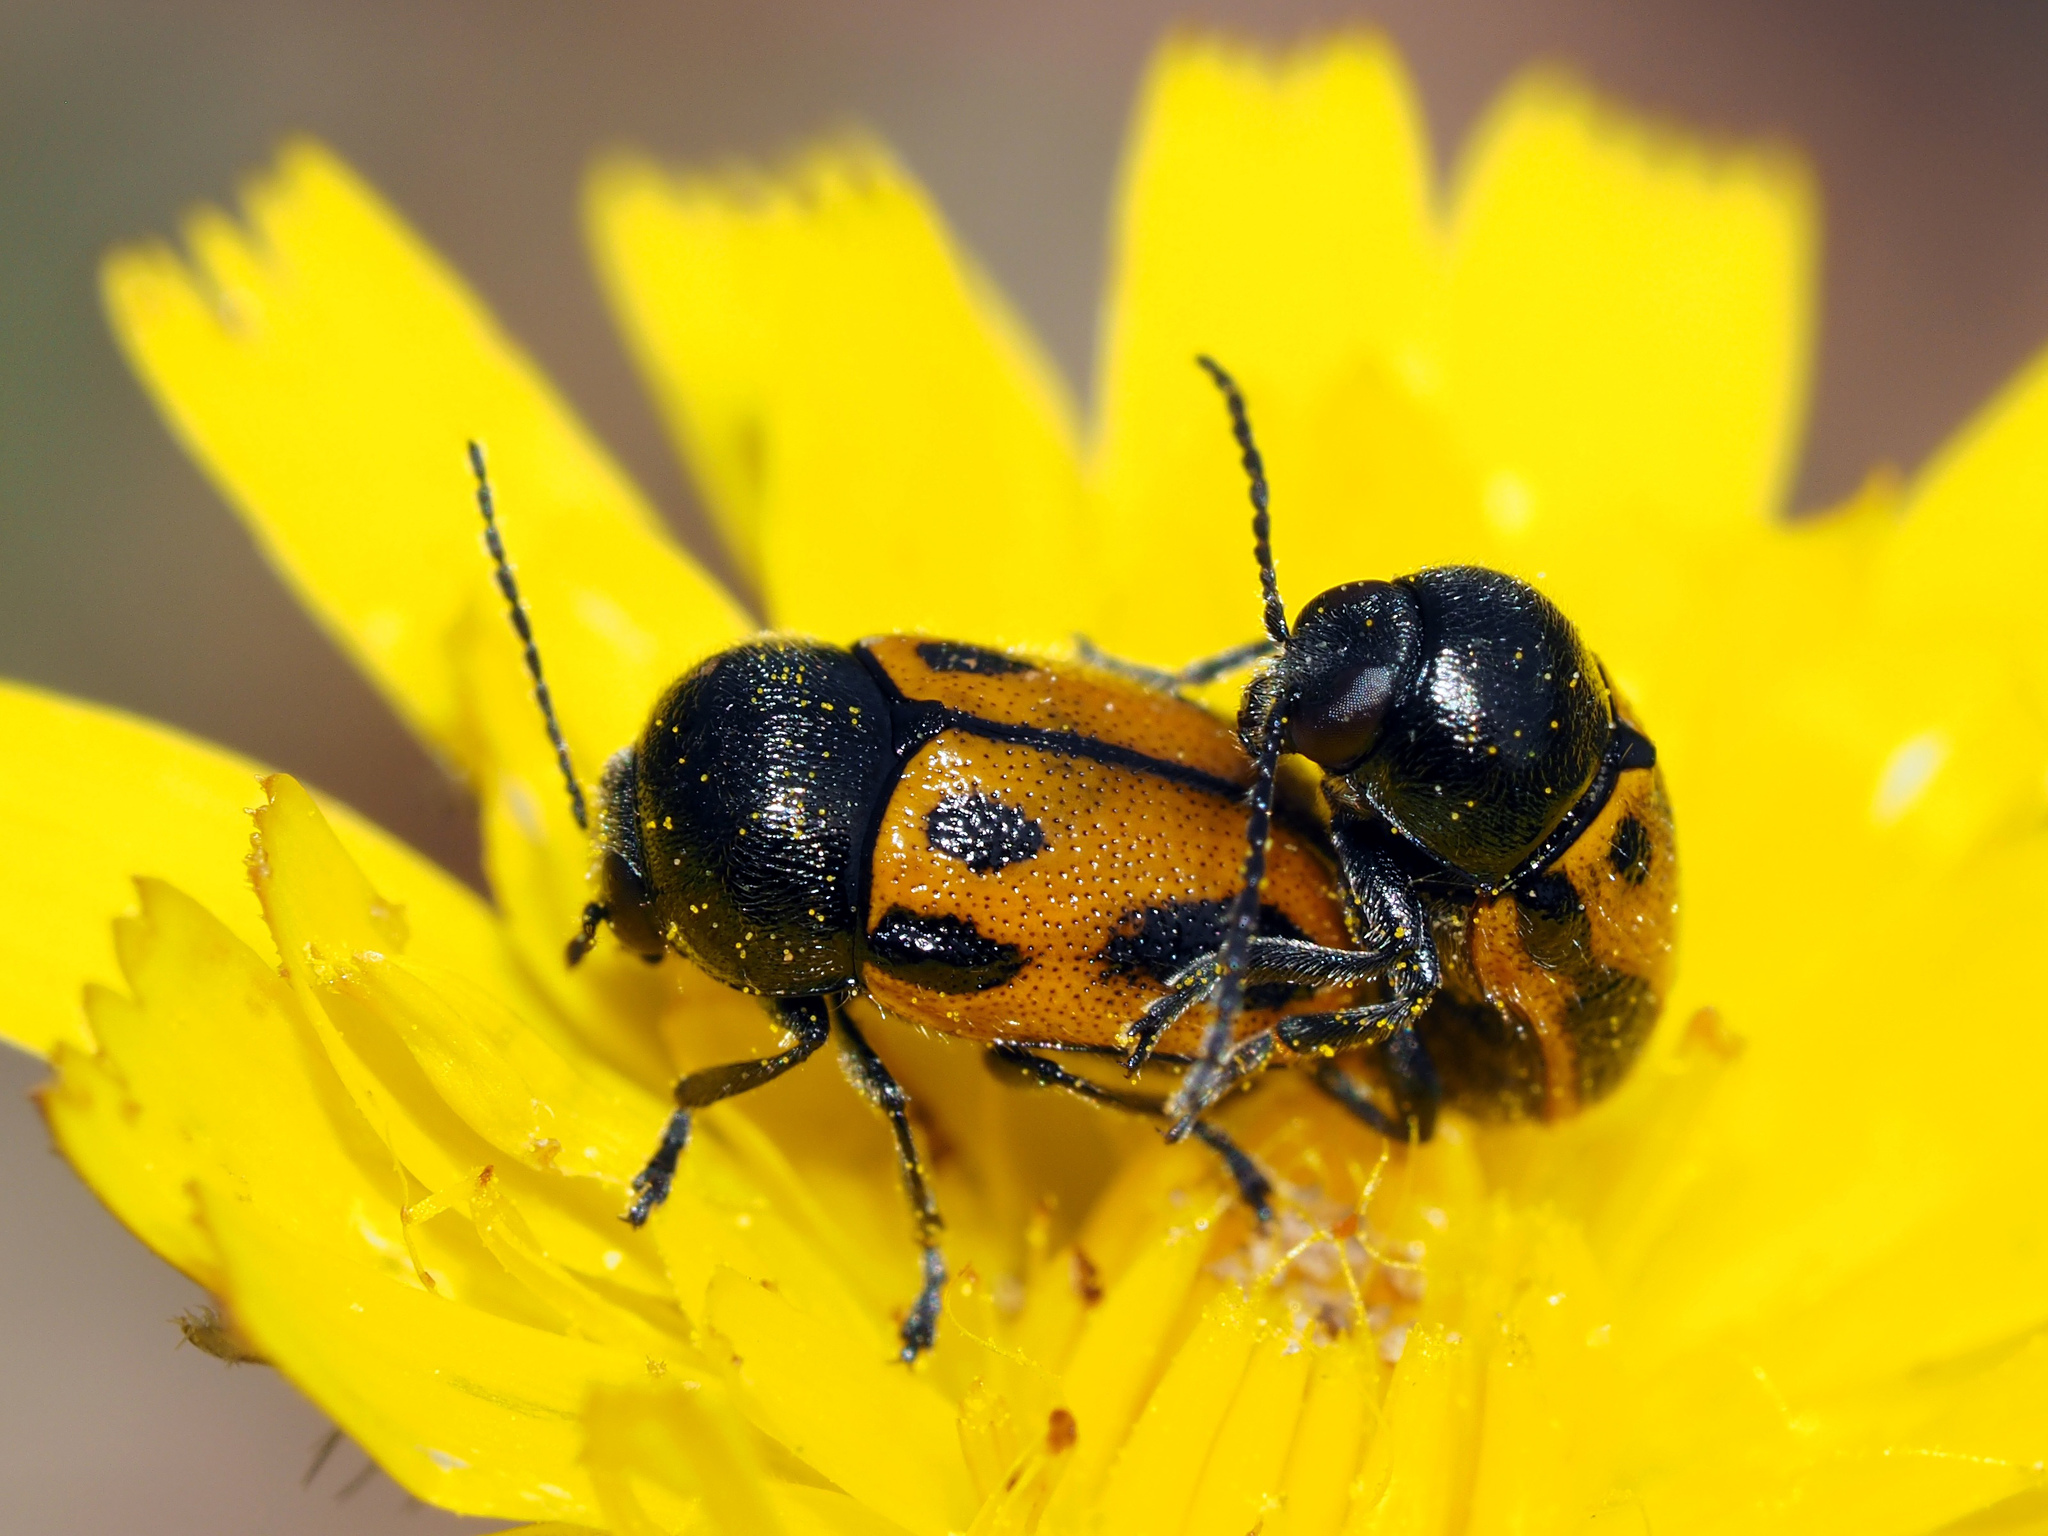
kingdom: Animalia
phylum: Arthropoda
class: Insecta
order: Coleoptera
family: Chrysomelidae
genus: Cryptocephalus
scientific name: Cryptocephalus rugicollis
